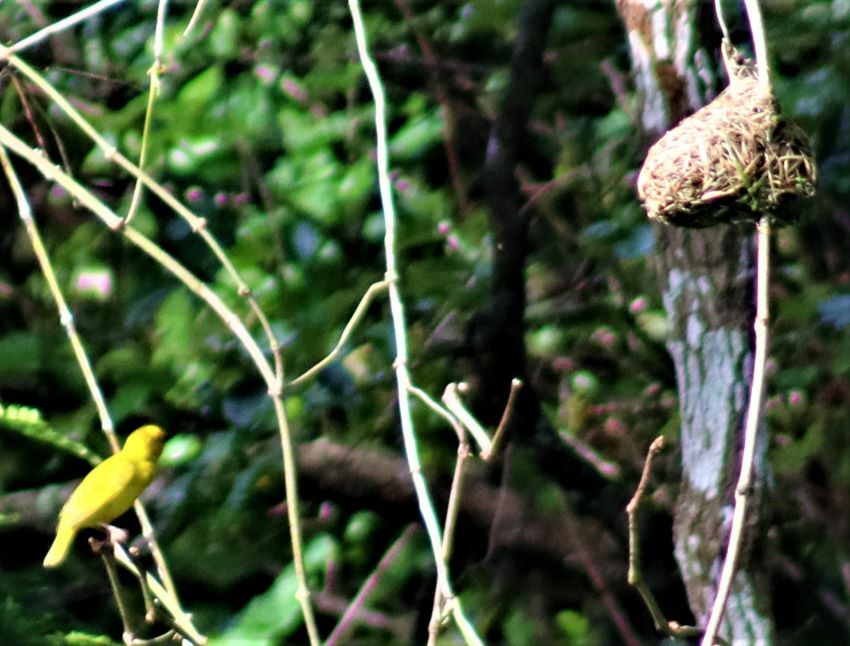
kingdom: Animalia
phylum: Chordata
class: Aves
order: Passeriformes
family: Ploceidae
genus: Ploceus
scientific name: Ploceus subaureus
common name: Yellow weaver
